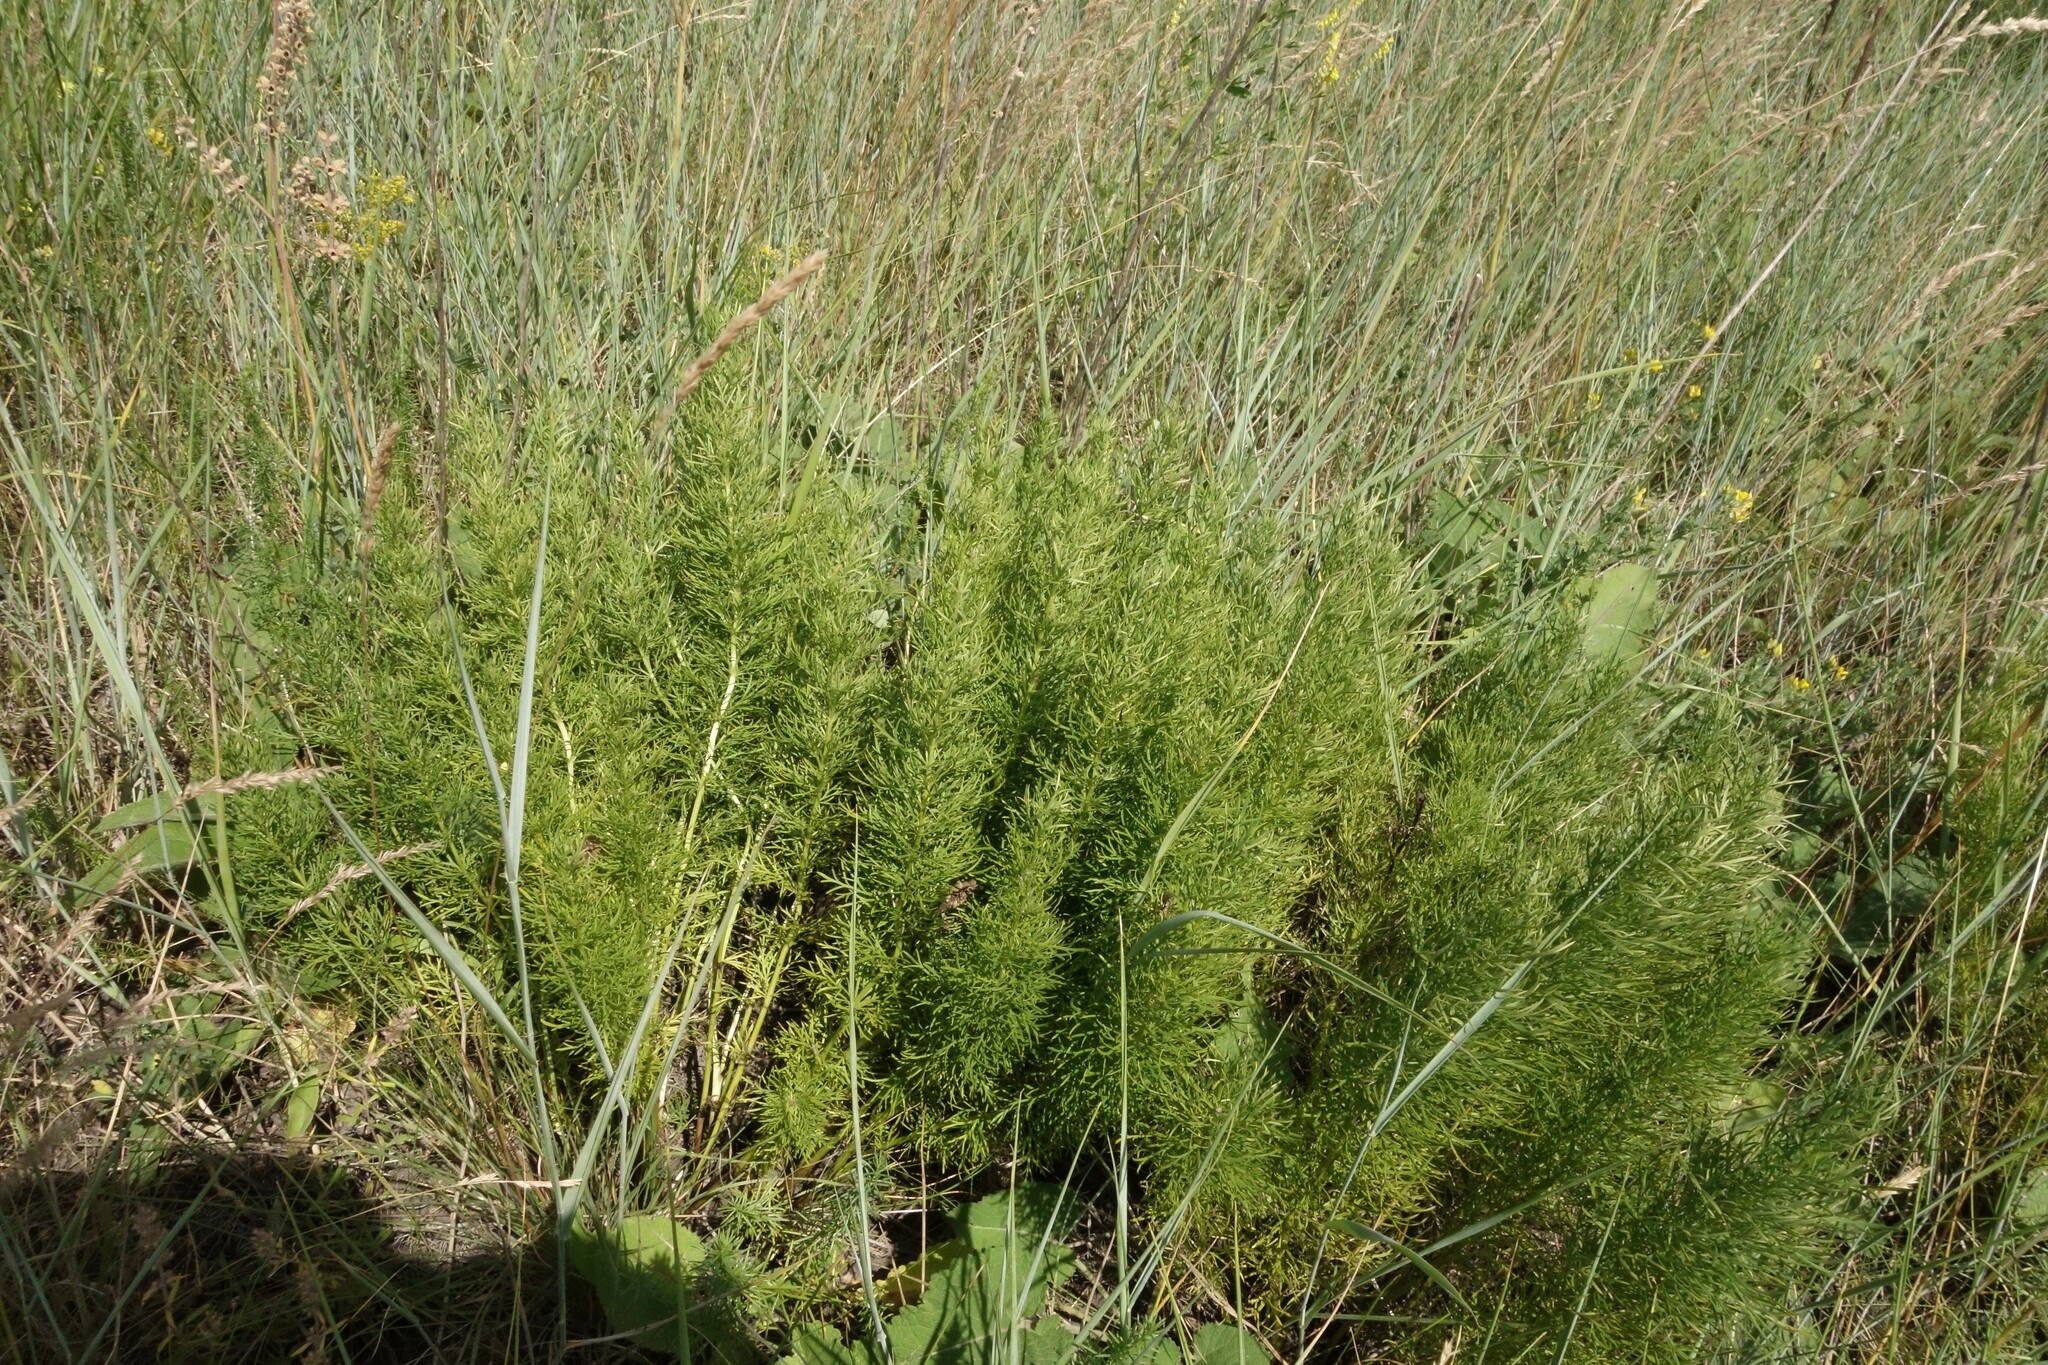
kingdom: Plantae
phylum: Tracheophyta
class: Magnoliopsida
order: Ranunculales
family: Ranunculaceae
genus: Adonis
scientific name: Adonis vernalis
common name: Yellow pheasants-eye
